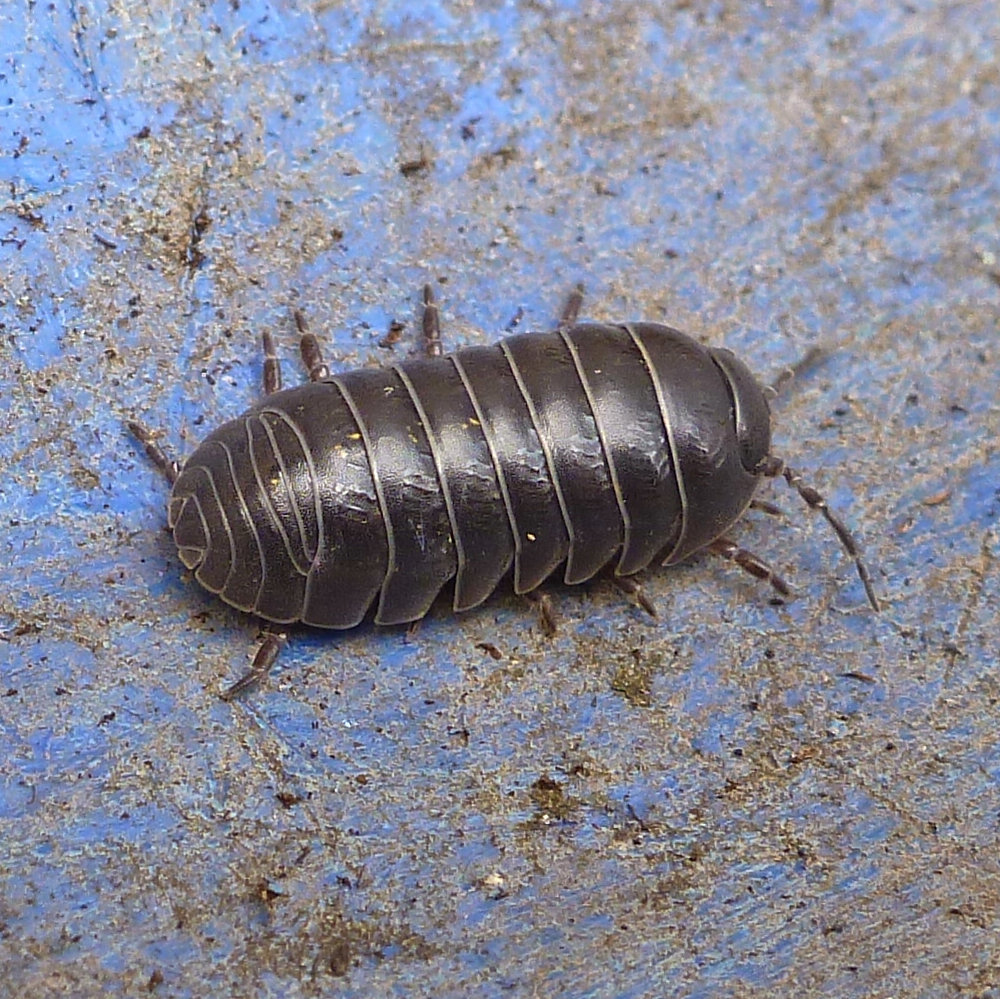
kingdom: Animalia
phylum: Arthropoda
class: Malacostraca
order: Isopoda
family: Armadillidiidae
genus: Armadillidium
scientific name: Armadillidium vulgare
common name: Common pill woodlouse
